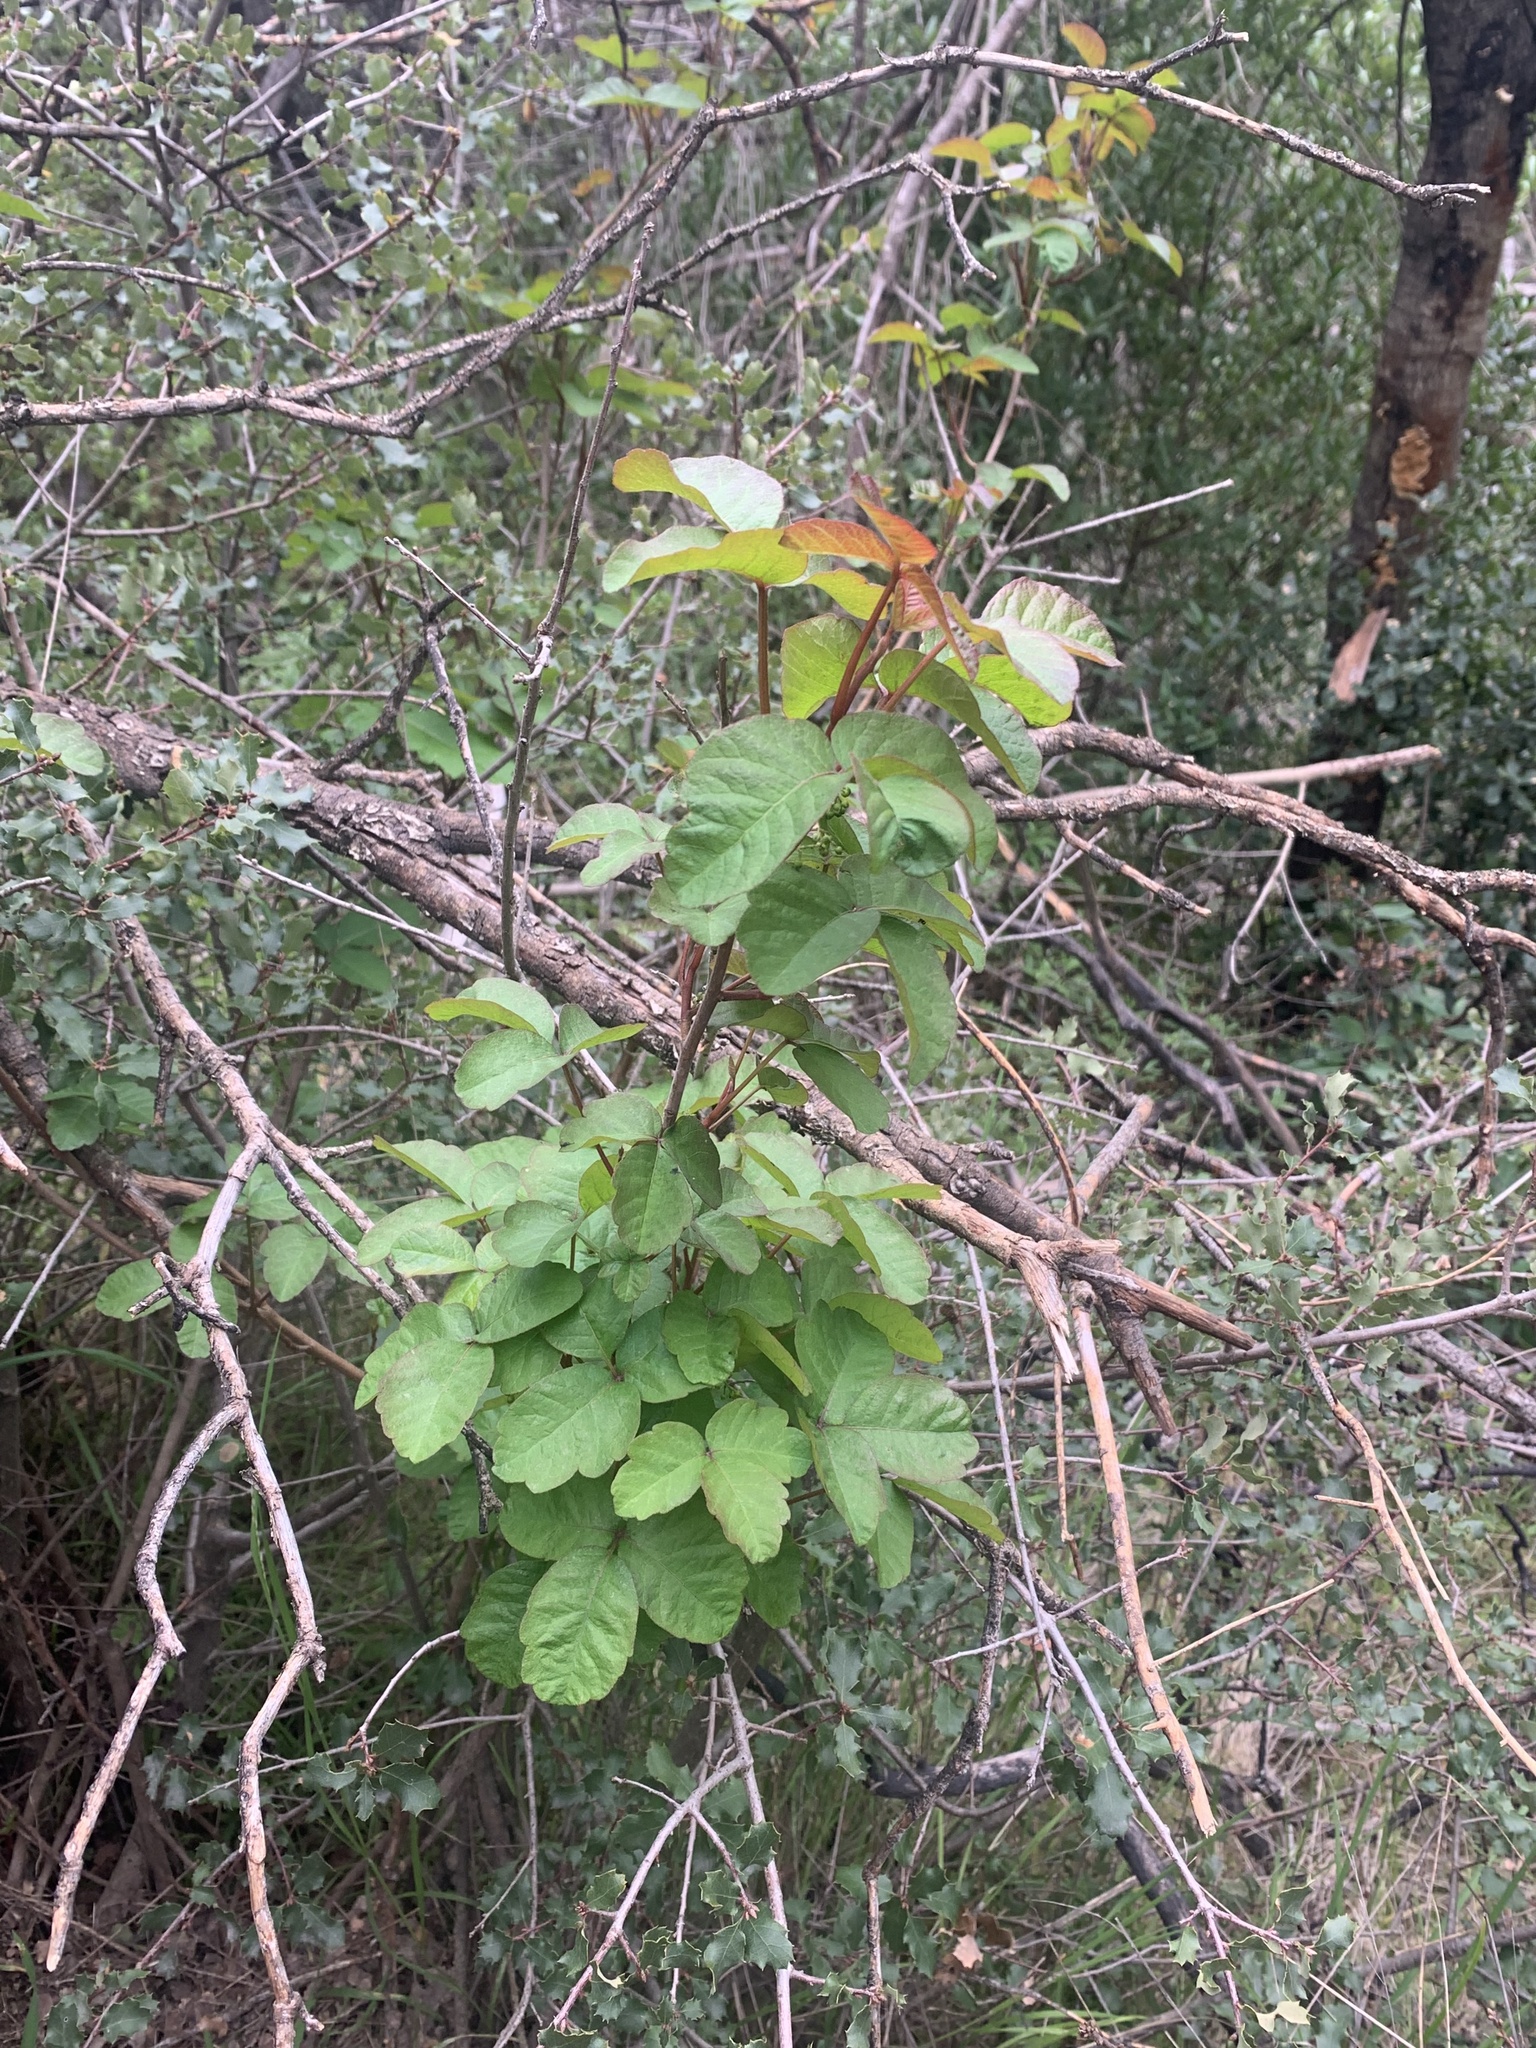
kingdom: Plantae
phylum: Tracheophyta
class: Magnoliopsida
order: Sapindales
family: Anacardiaceae
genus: Toxicodendron
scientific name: Toxicodendron diversilobum
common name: Pacific poison-oak
